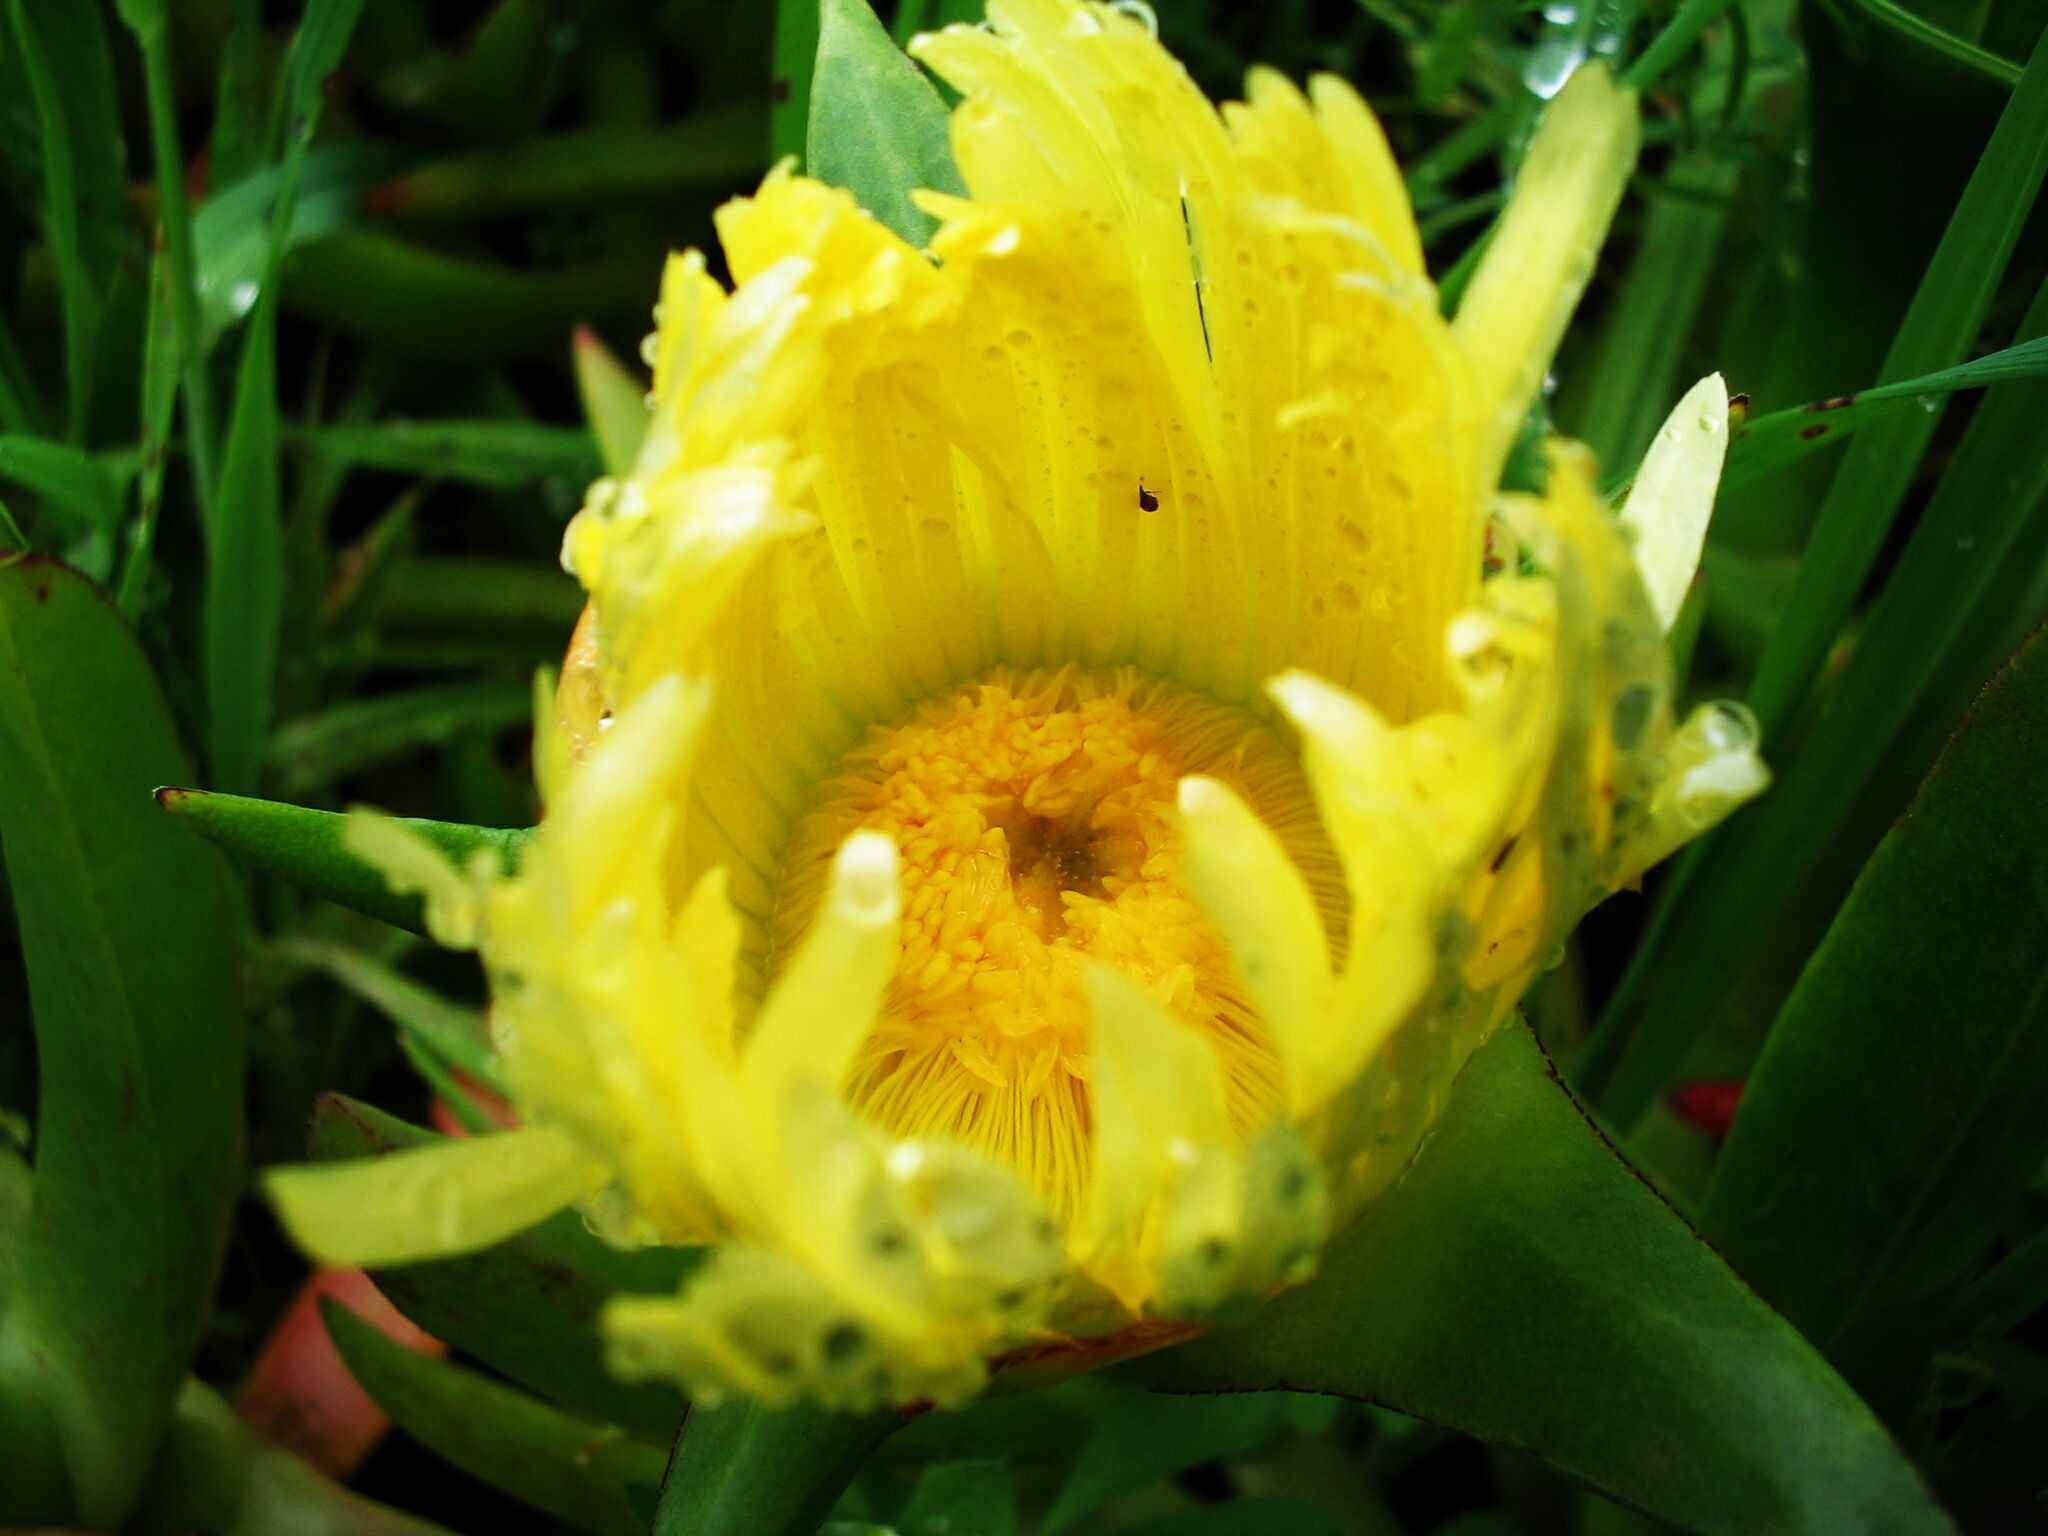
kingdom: Plantae
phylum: Tracheophyta
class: Magnoliopsida
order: Caryophyllales
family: Aizoaceae
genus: Carpobrotus
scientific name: Carpobrotus edulis
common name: Hottentot-fig
